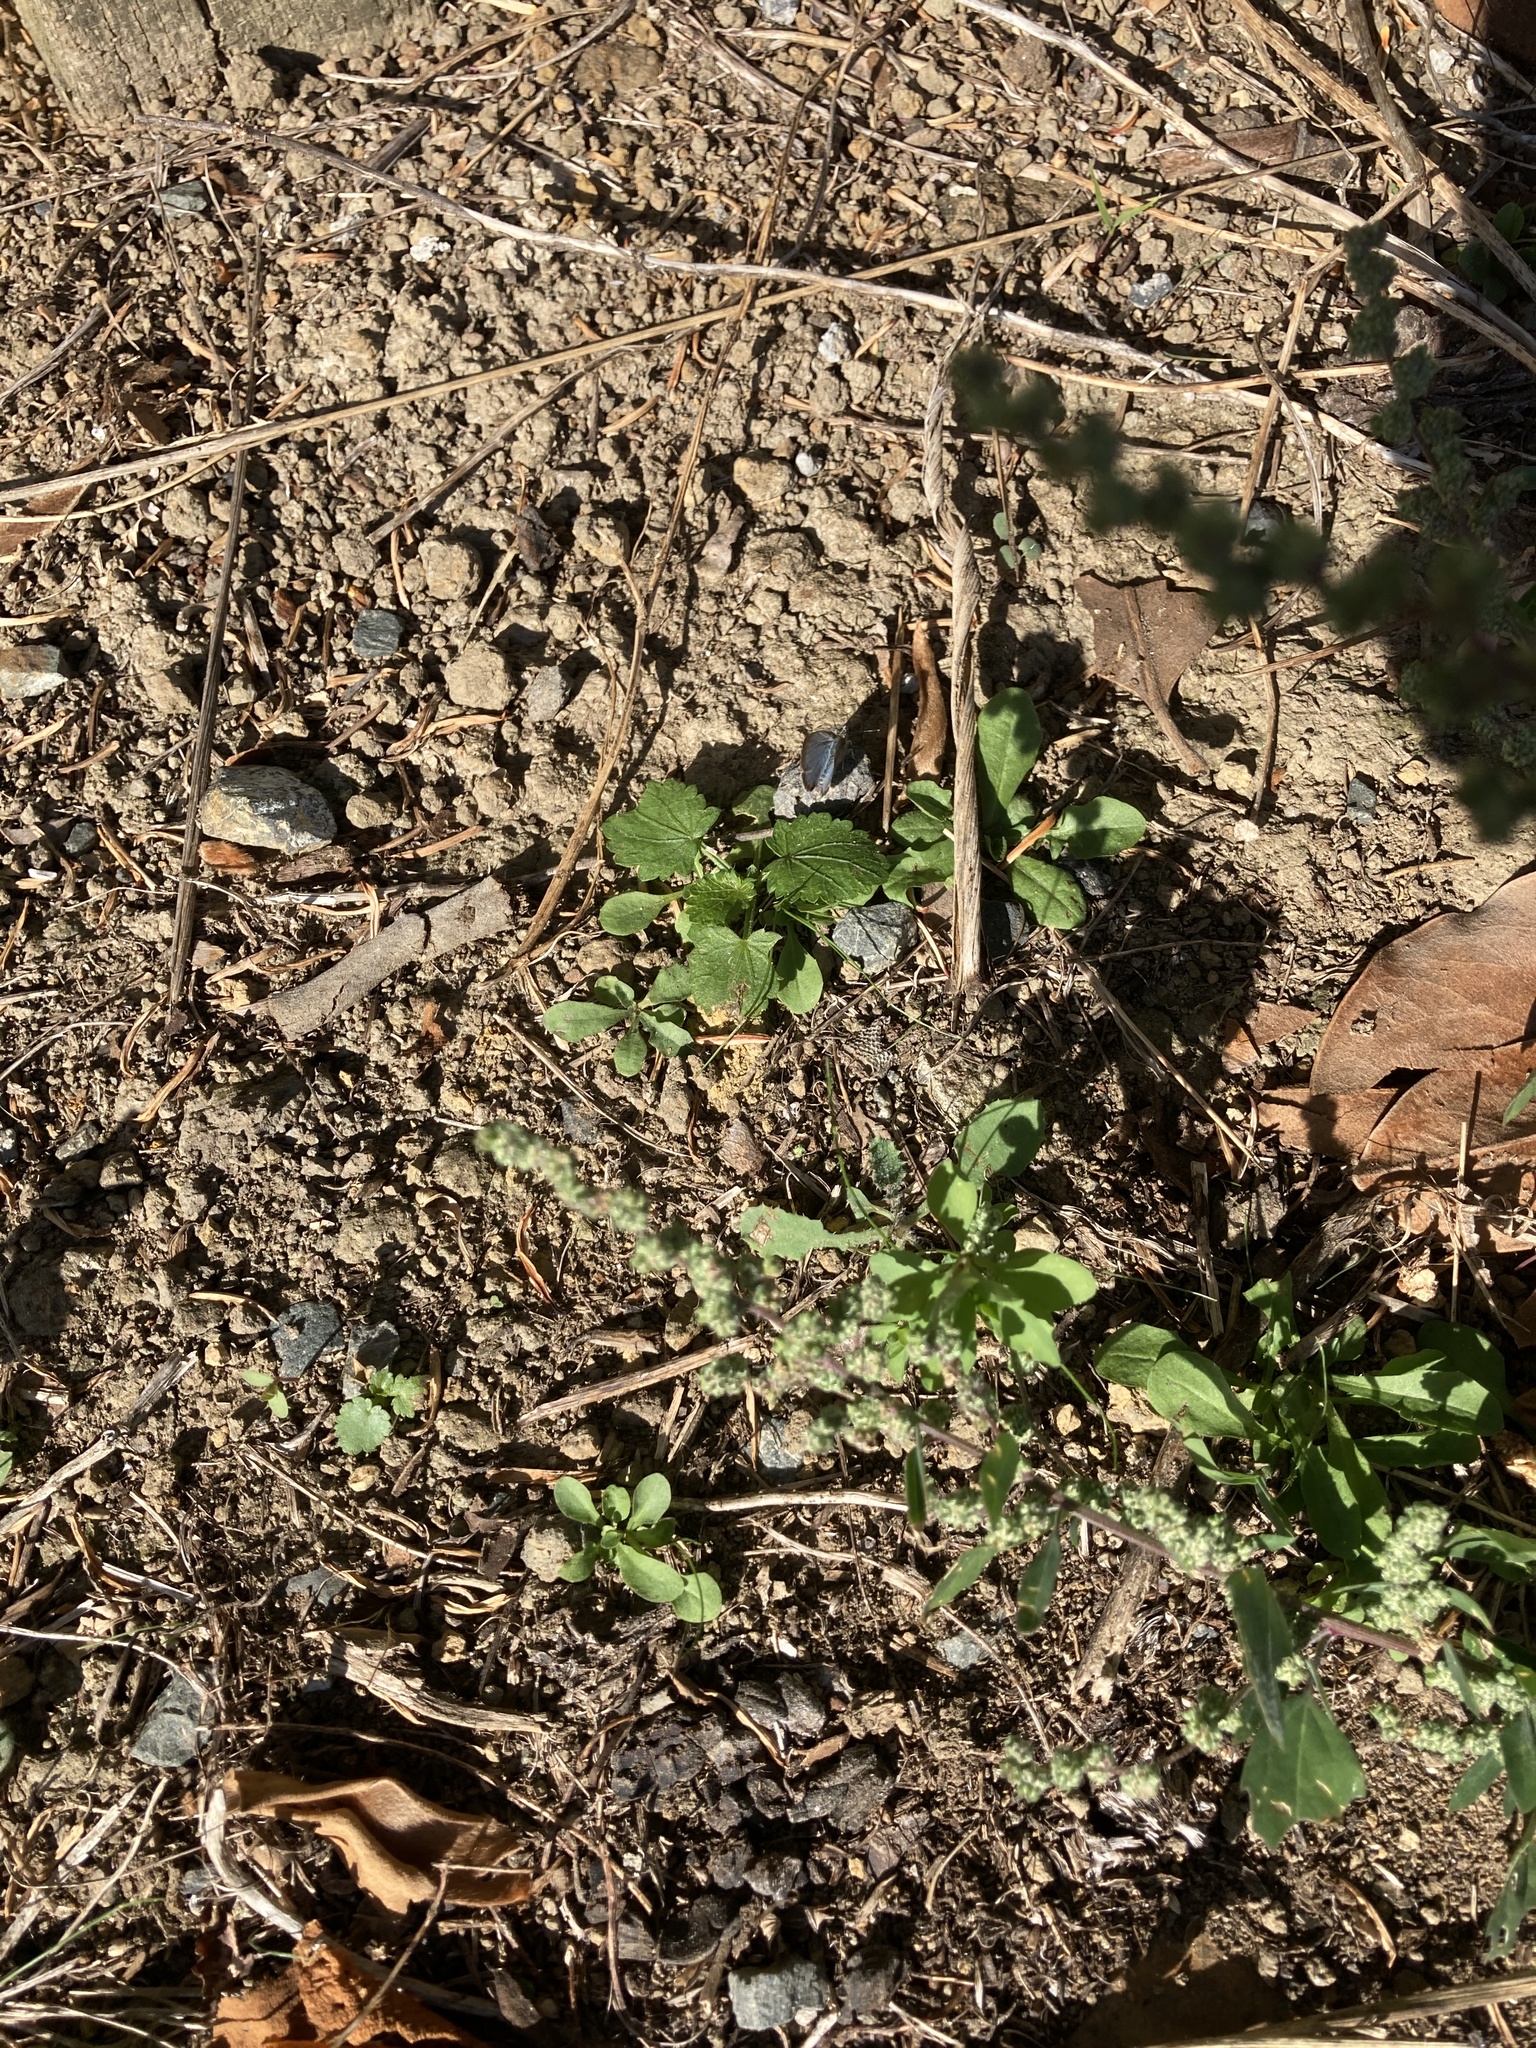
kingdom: Animalia
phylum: Arthropoda
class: Insecta
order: Lepidoptera
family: Lycaenidae
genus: Zizina
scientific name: Zizina otis
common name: Lesser grass blue
